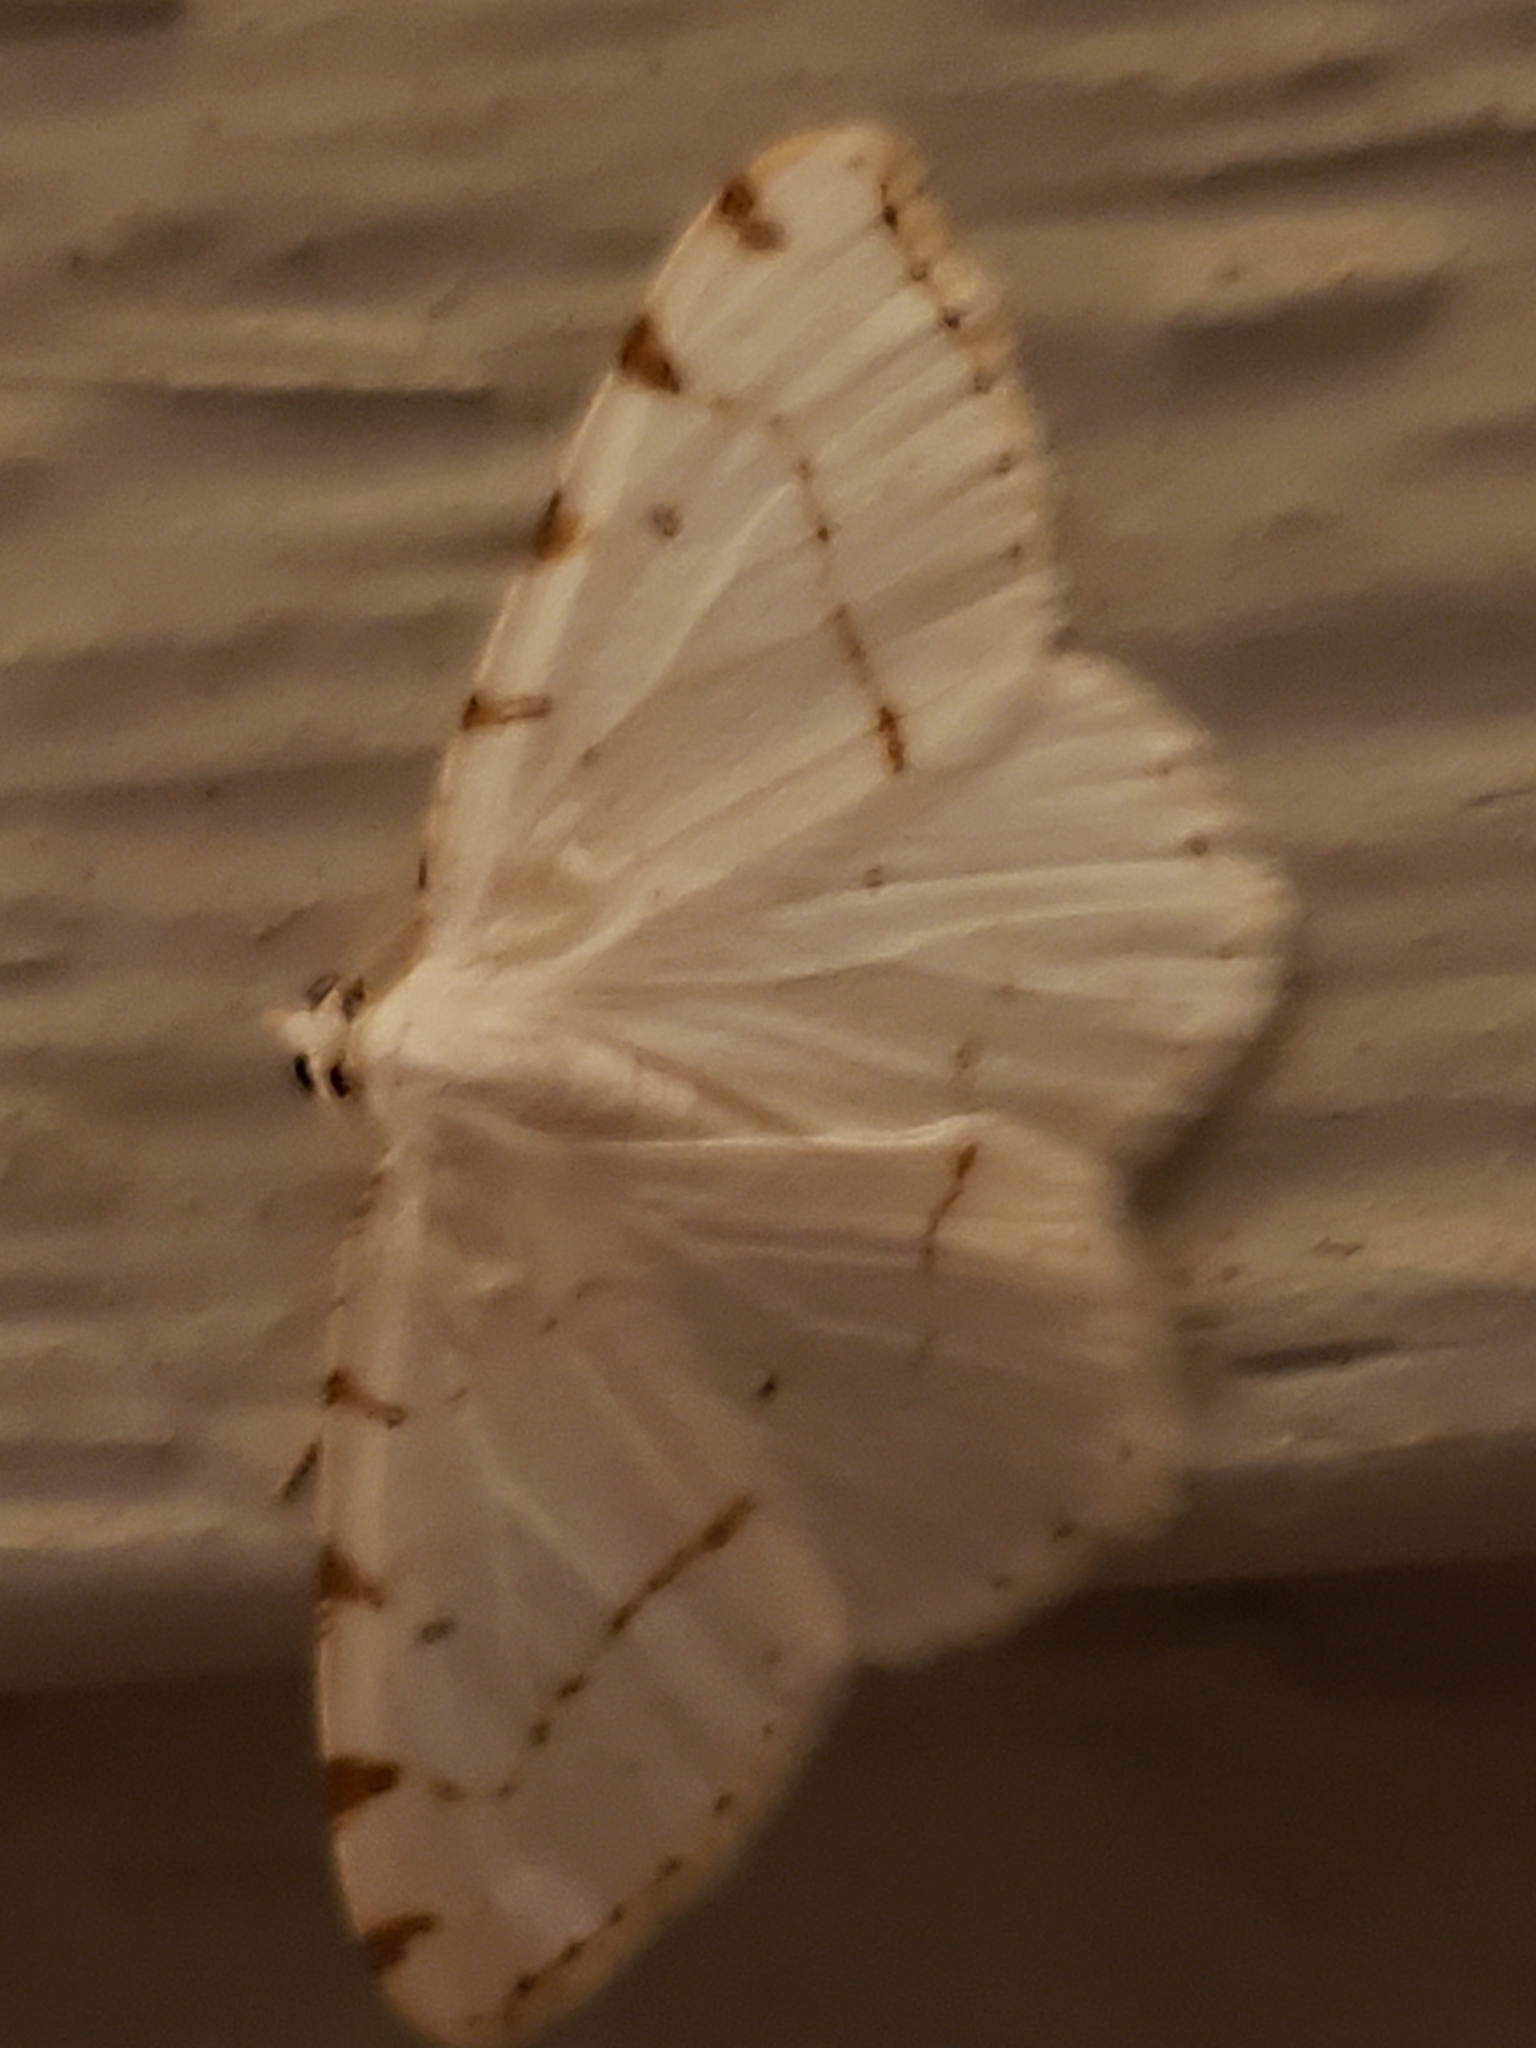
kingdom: Animalia
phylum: Arthropoda
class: Insecta
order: Lepidoptera
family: Geometridae
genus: Macaria
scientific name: Macaria pustularia
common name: Lesser maple spanworm moth
